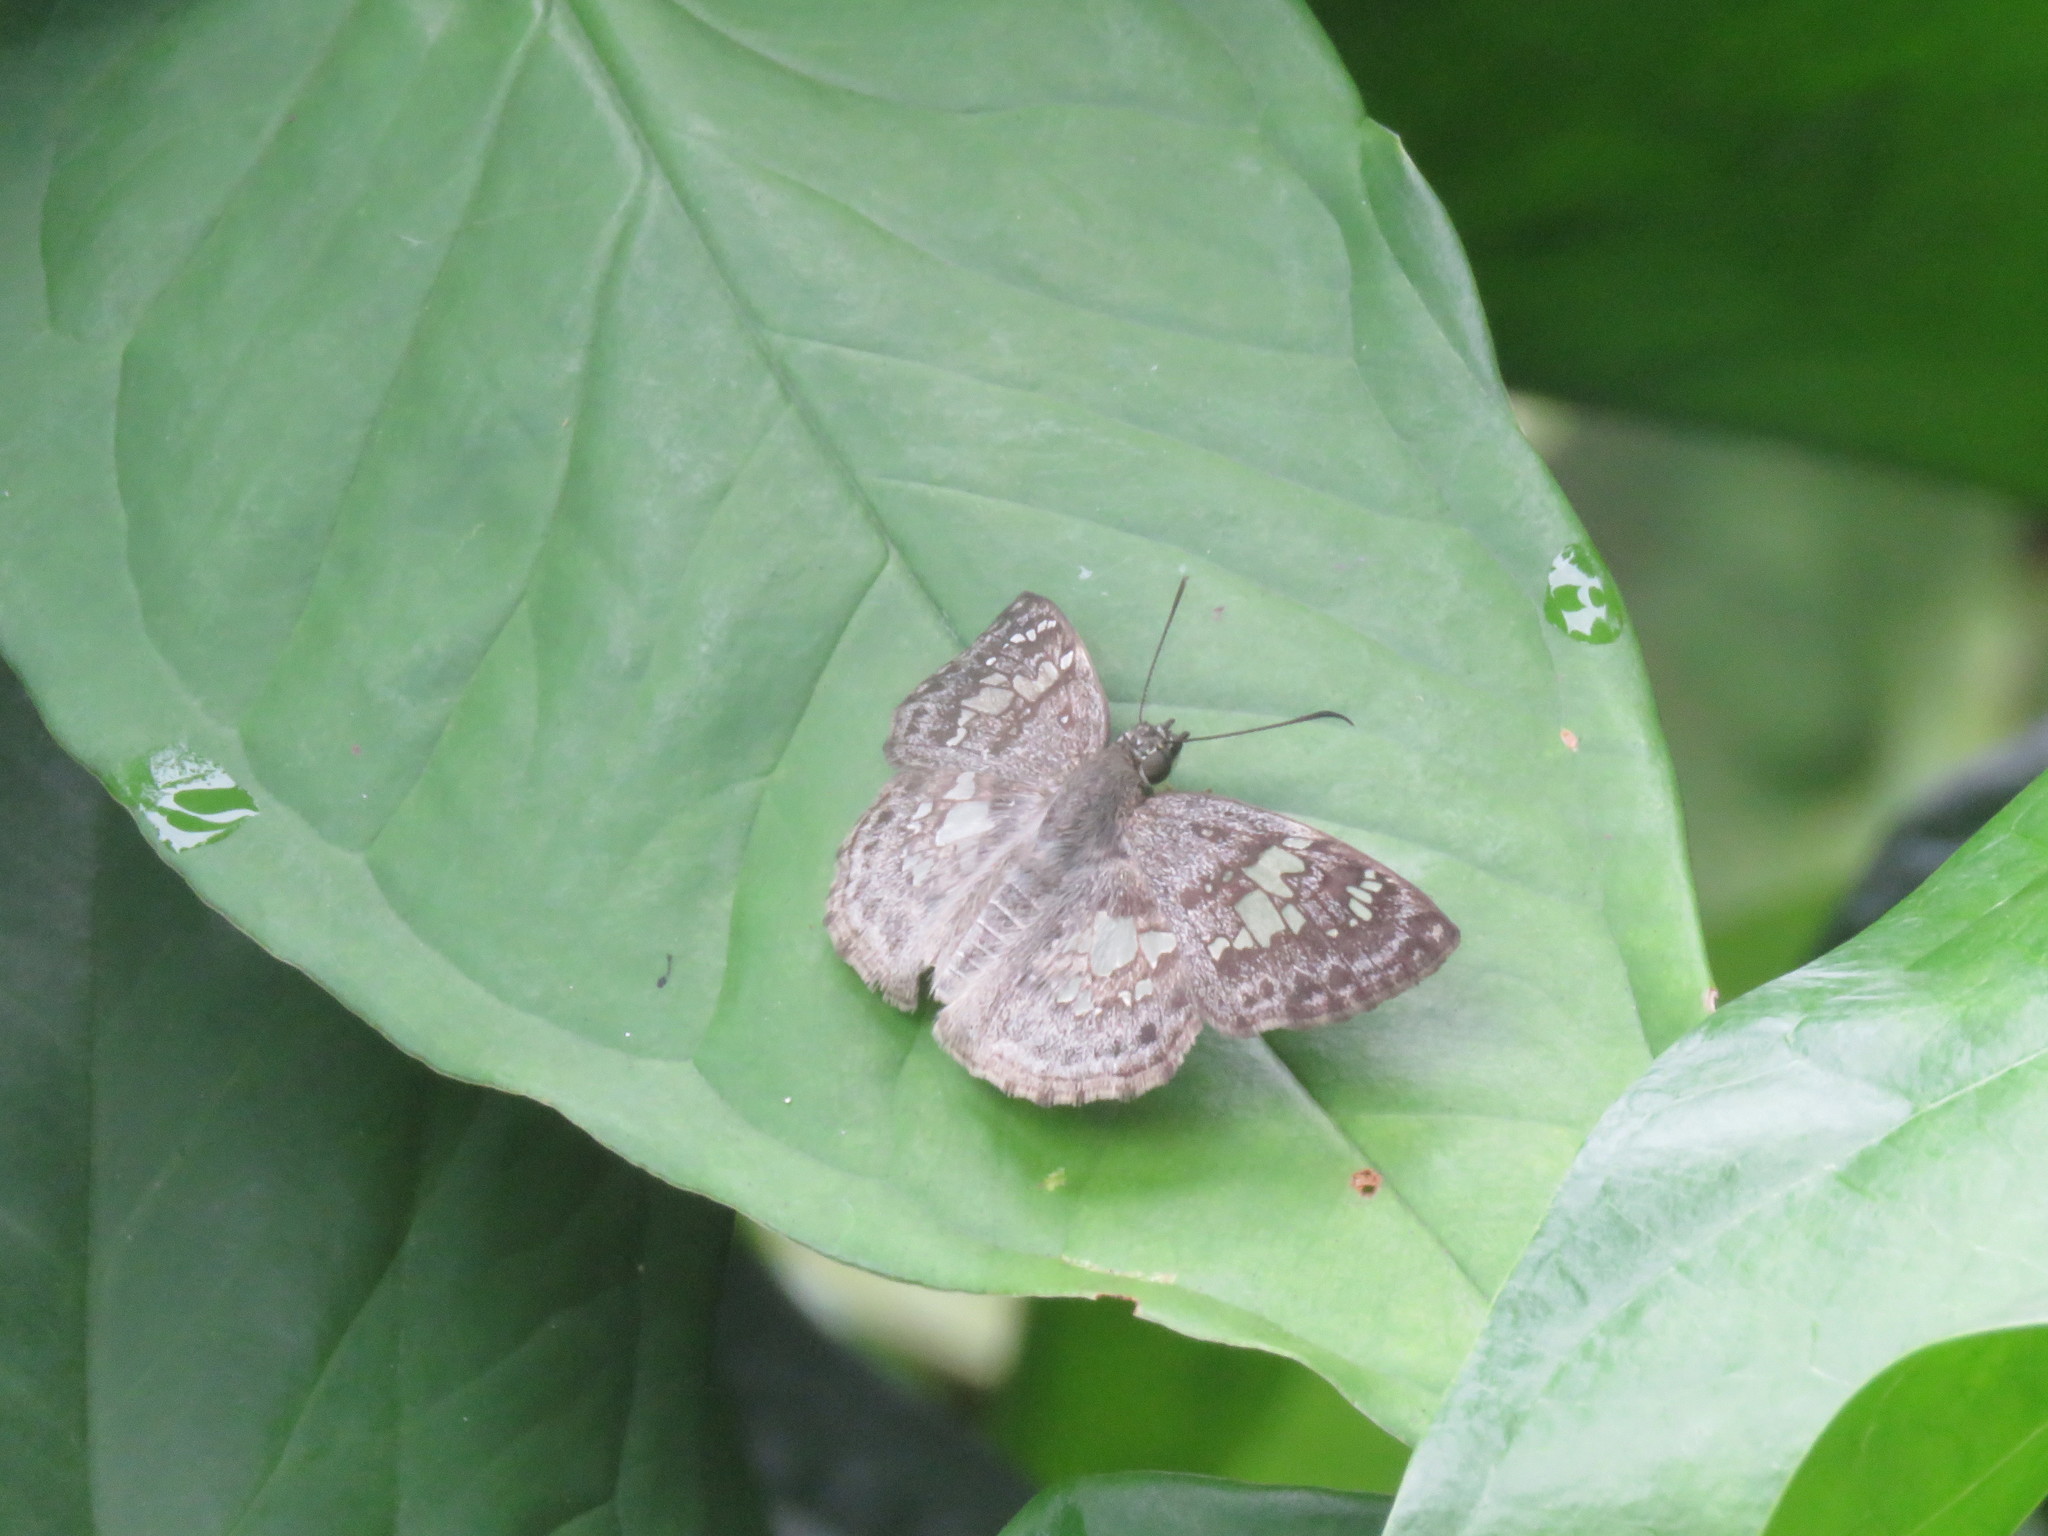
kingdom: Animalia
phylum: Arthropoda
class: Insecta
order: Lepidoptera
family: Hesperiidae
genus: Xenophanes
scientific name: Xenophanes tryxus
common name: Glassy-winged skipper
